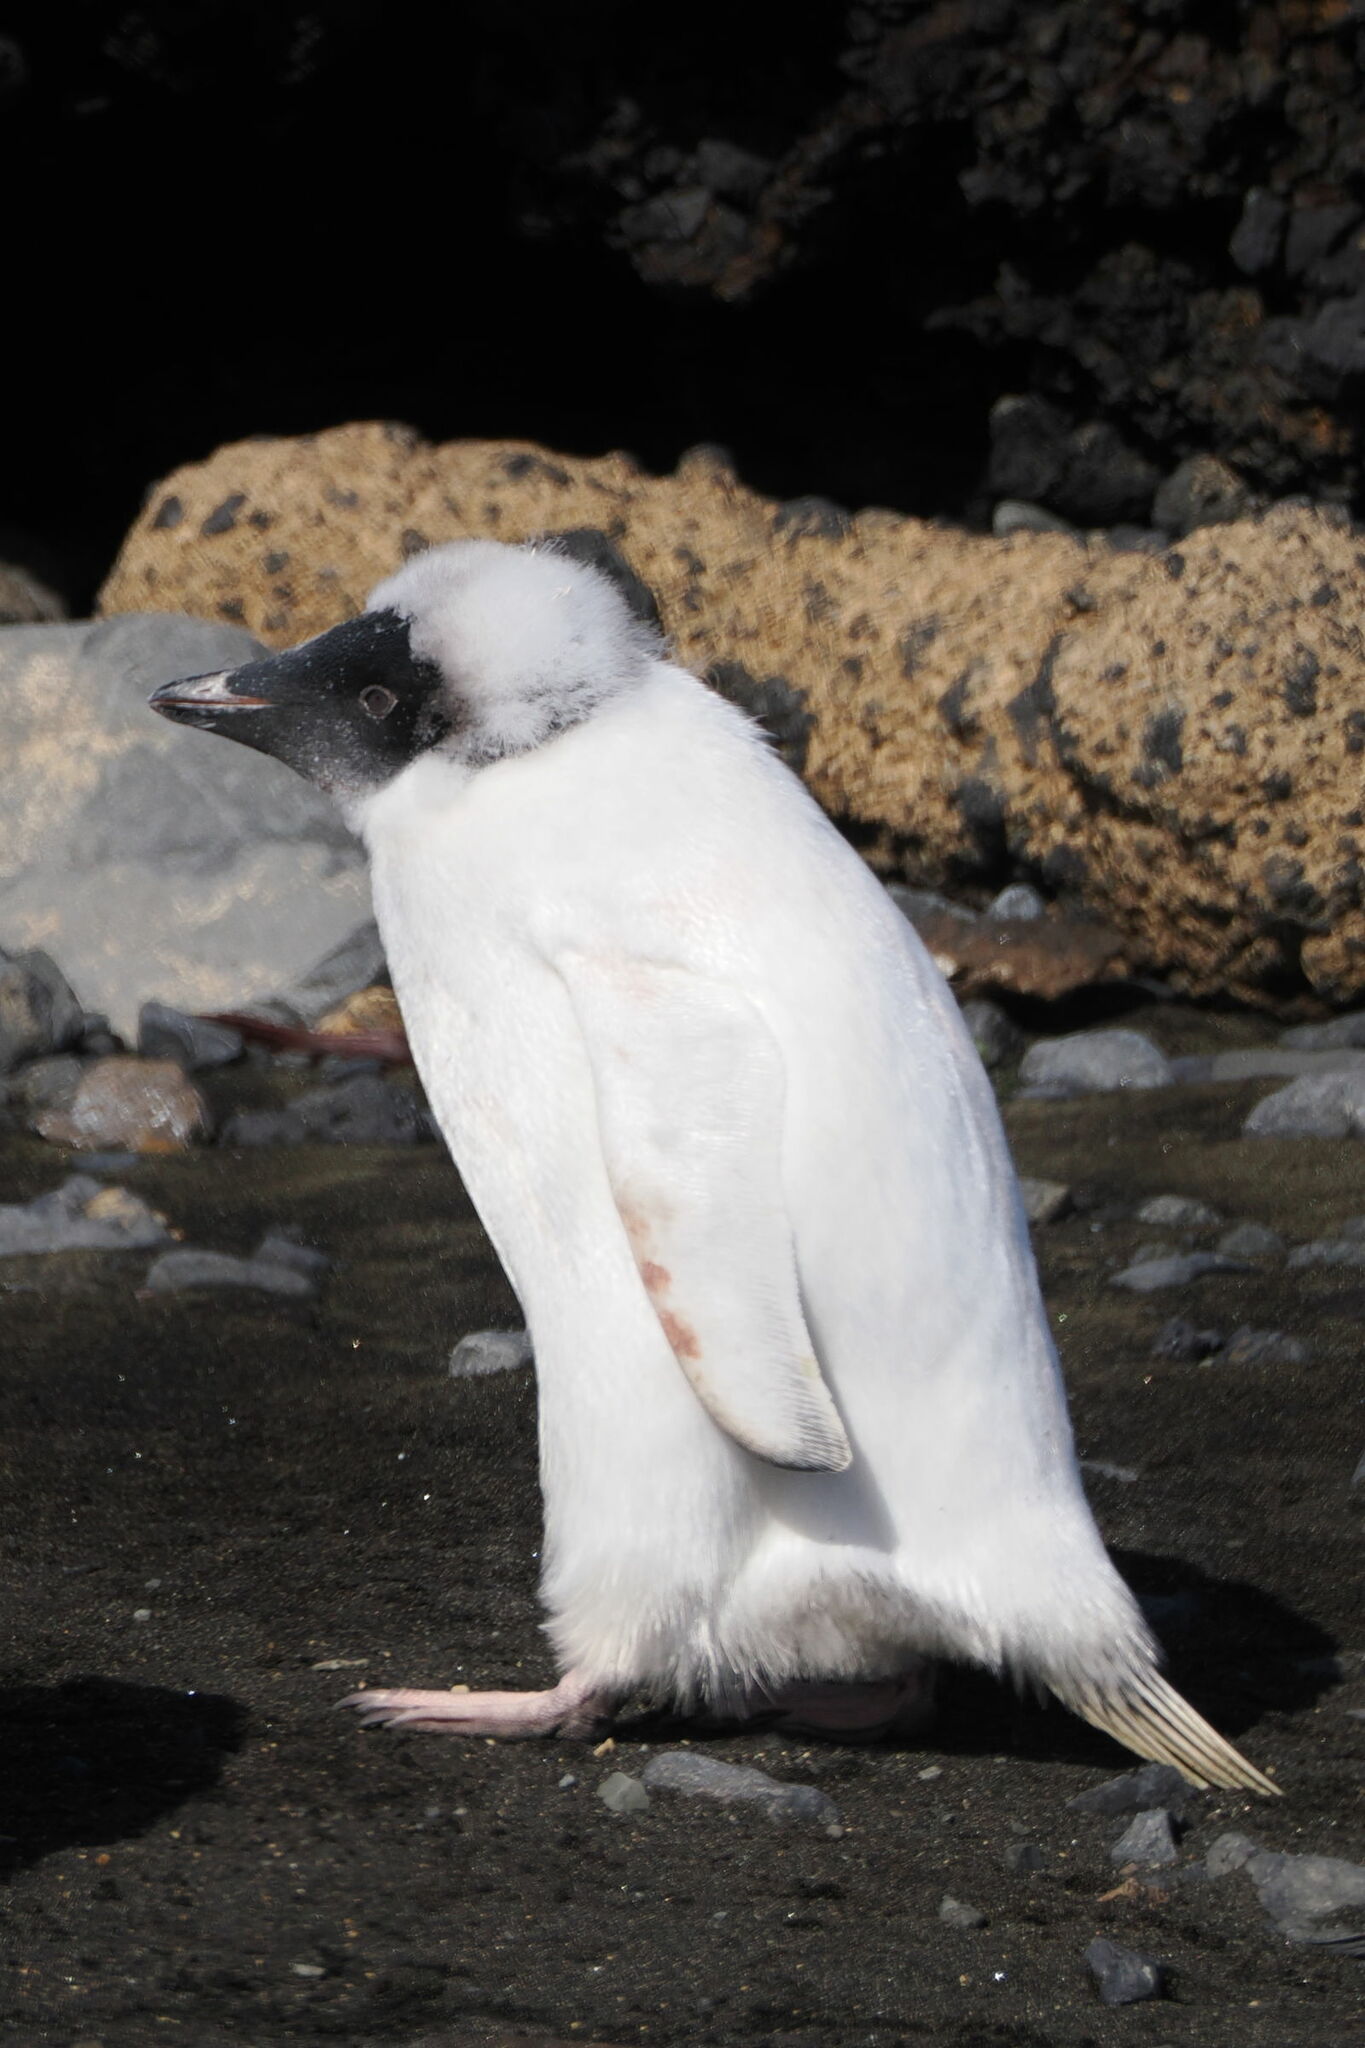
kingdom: Animalia
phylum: Chordata
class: Aves
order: Sphenisciformes
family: Spheniscidae
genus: Pygoscelis
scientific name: Pygoscelis adeliae
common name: Adelie penguin
